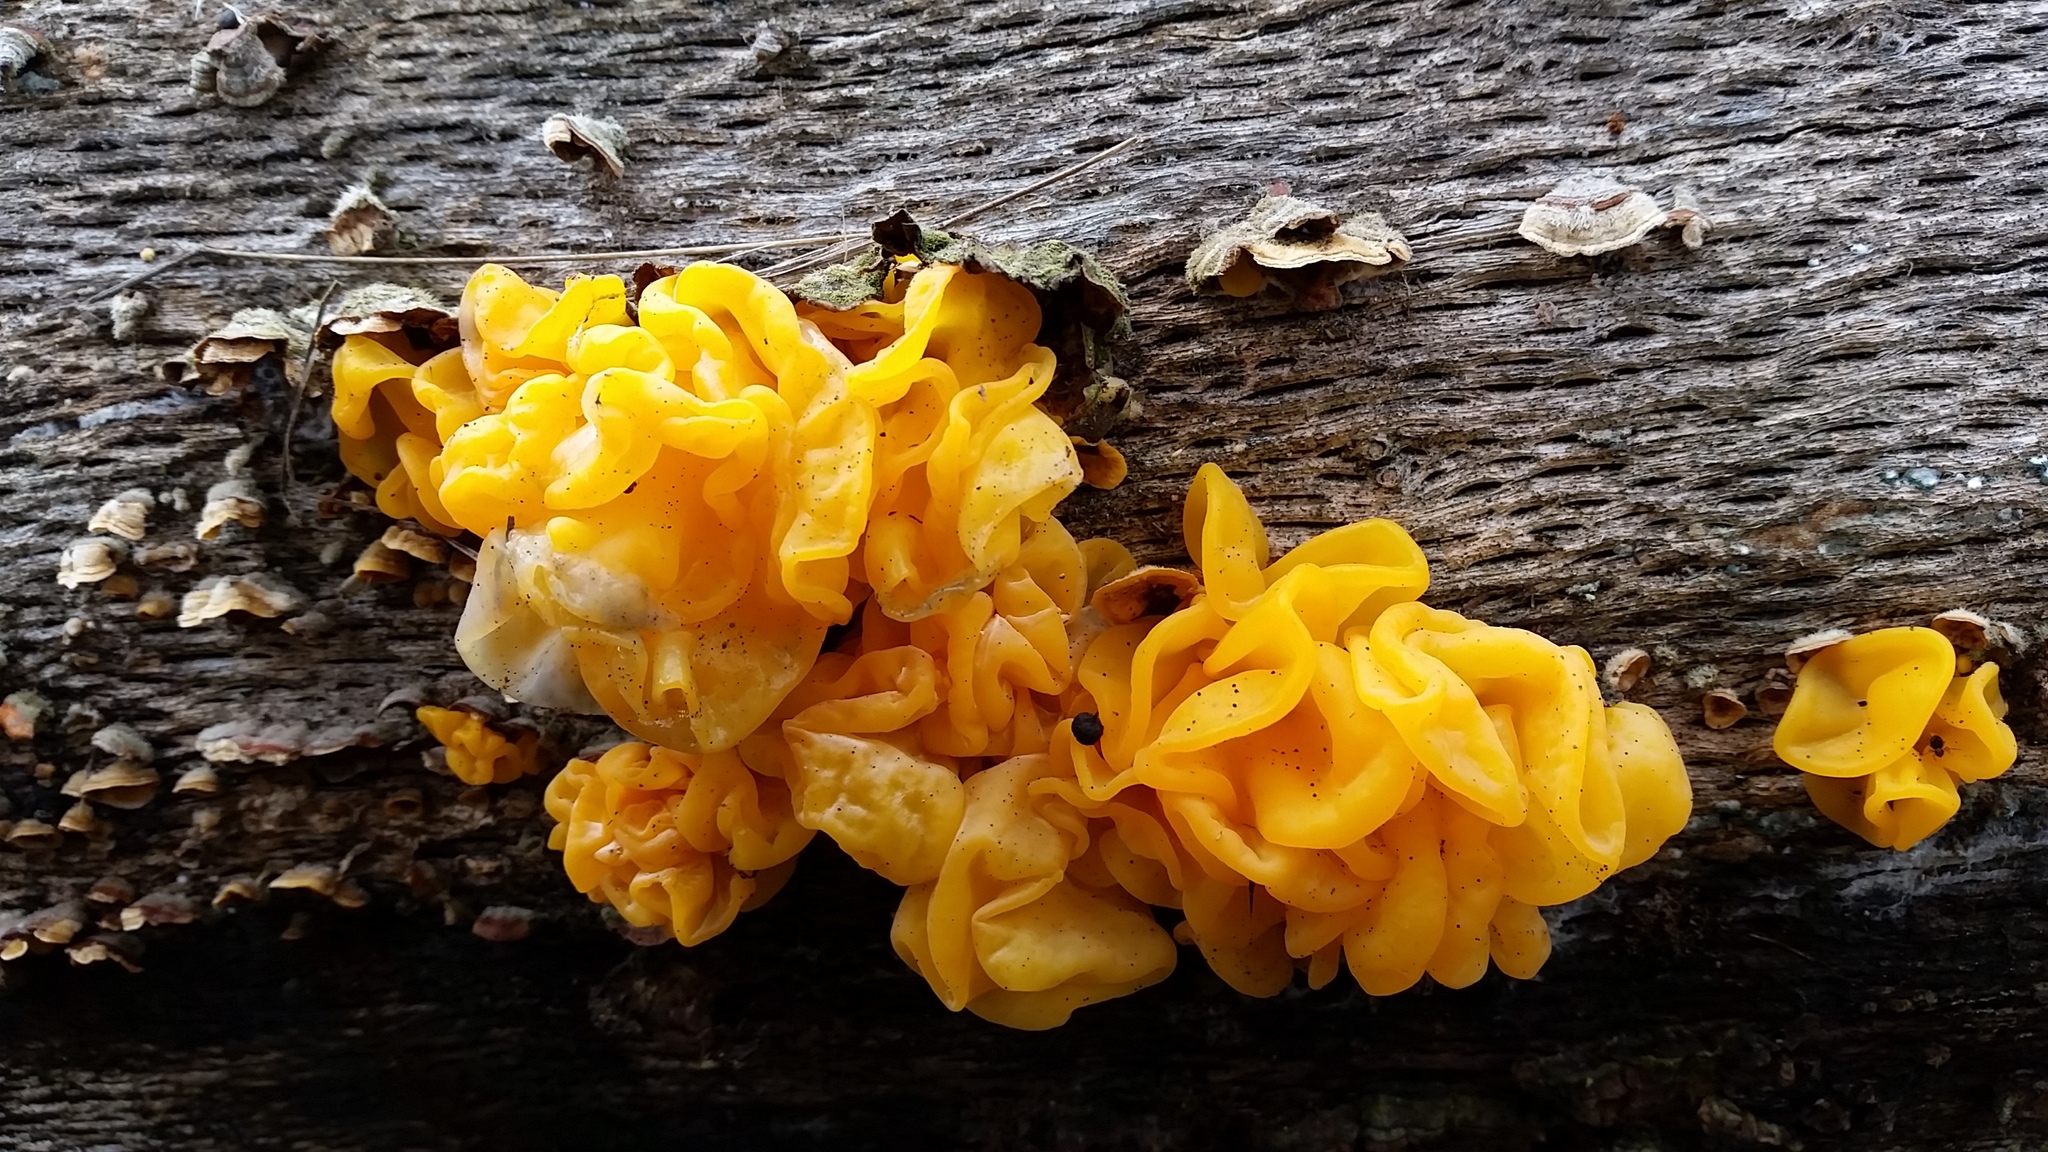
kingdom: Fungi
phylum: Basidiomycota
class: Tremellomycetes
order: Tremellales
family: Naemateliaceae
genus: Naematelia
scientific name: Naematelia aurantia
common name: Golden ear
